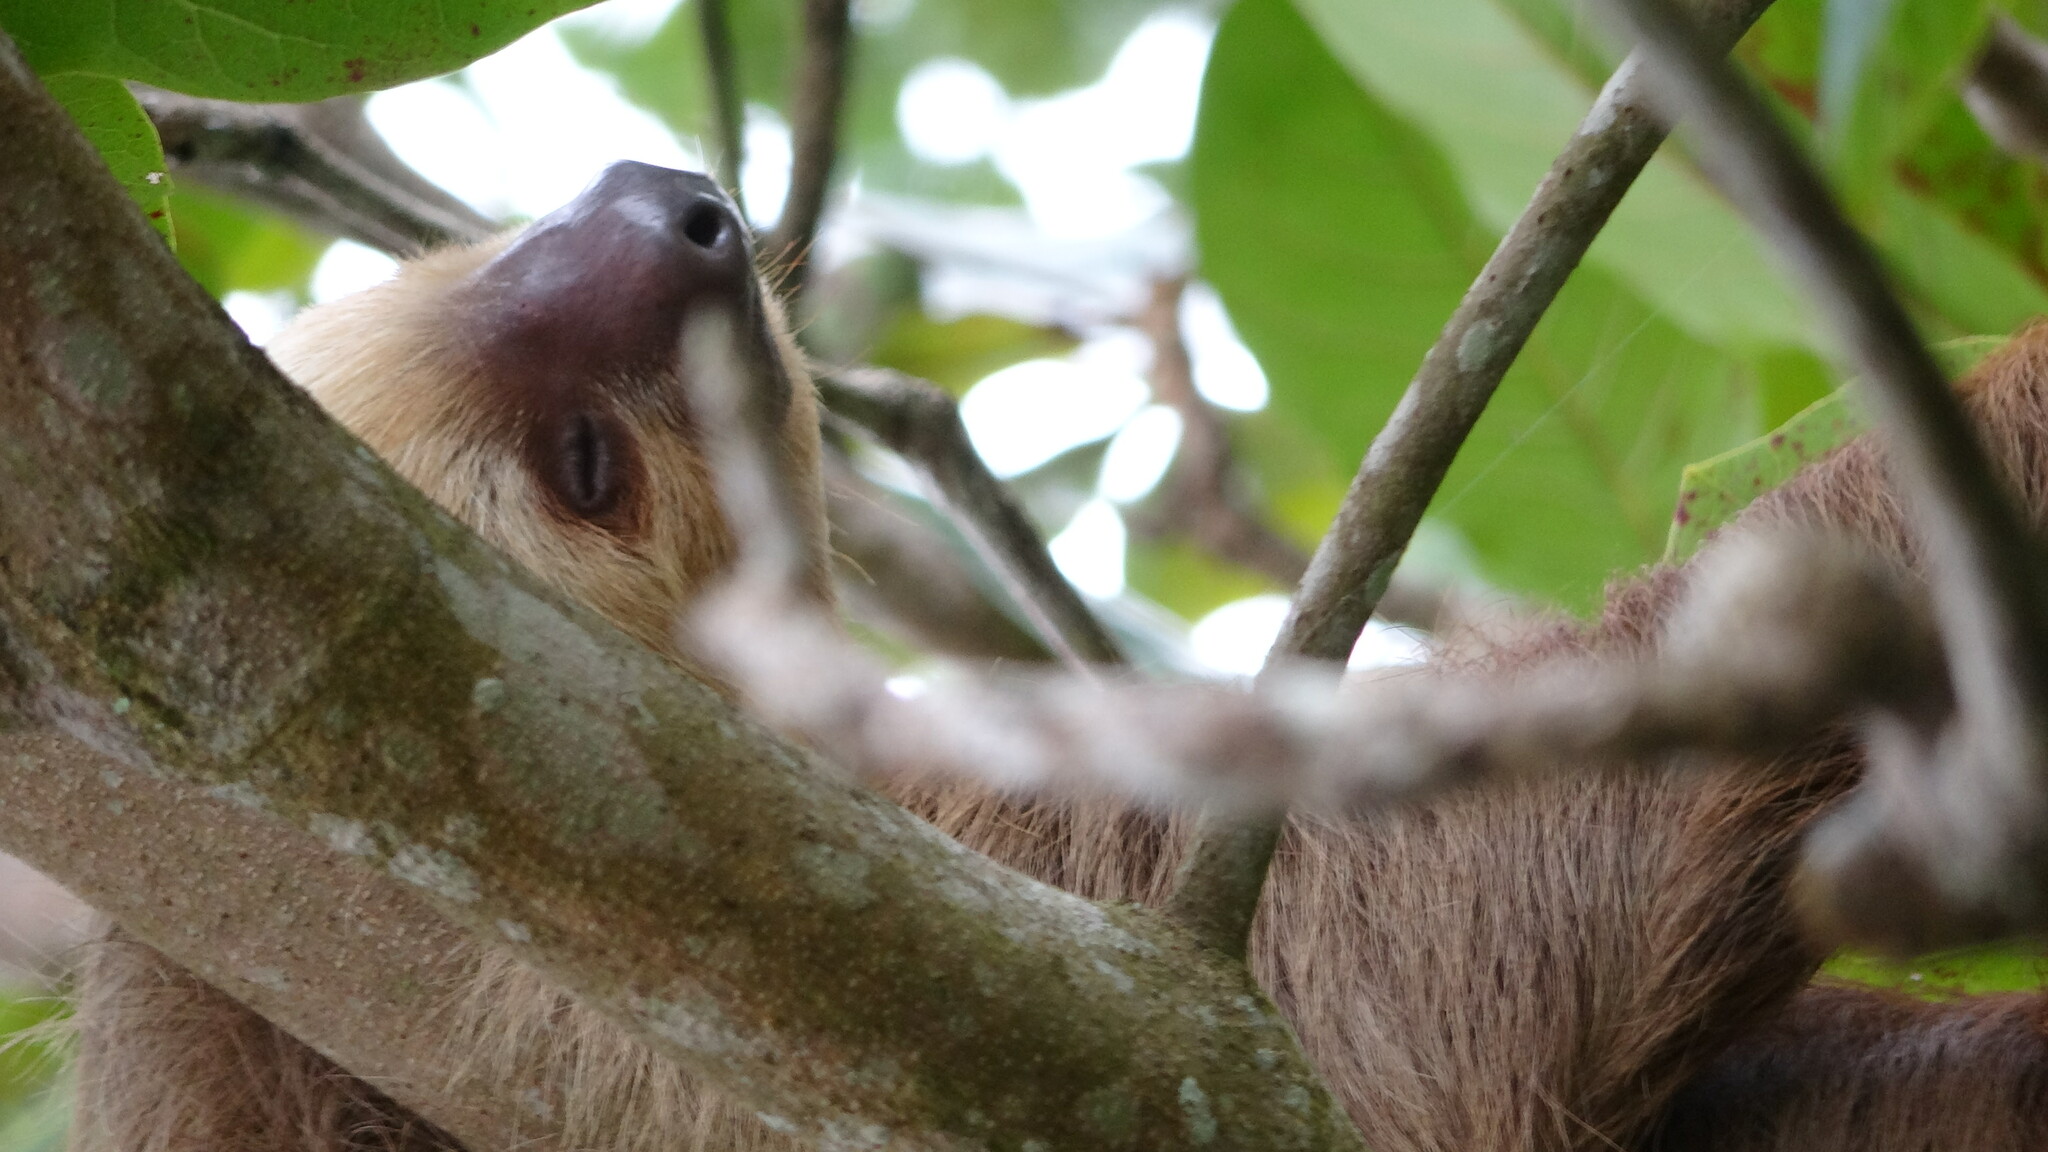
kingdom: Animalia
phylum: Chordata
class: Mammalia
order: Pilosa
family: Megalonychidae
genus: Choloepus
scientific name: Choloepus hoffmanni
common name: Hoffmann's two-toed sloth
